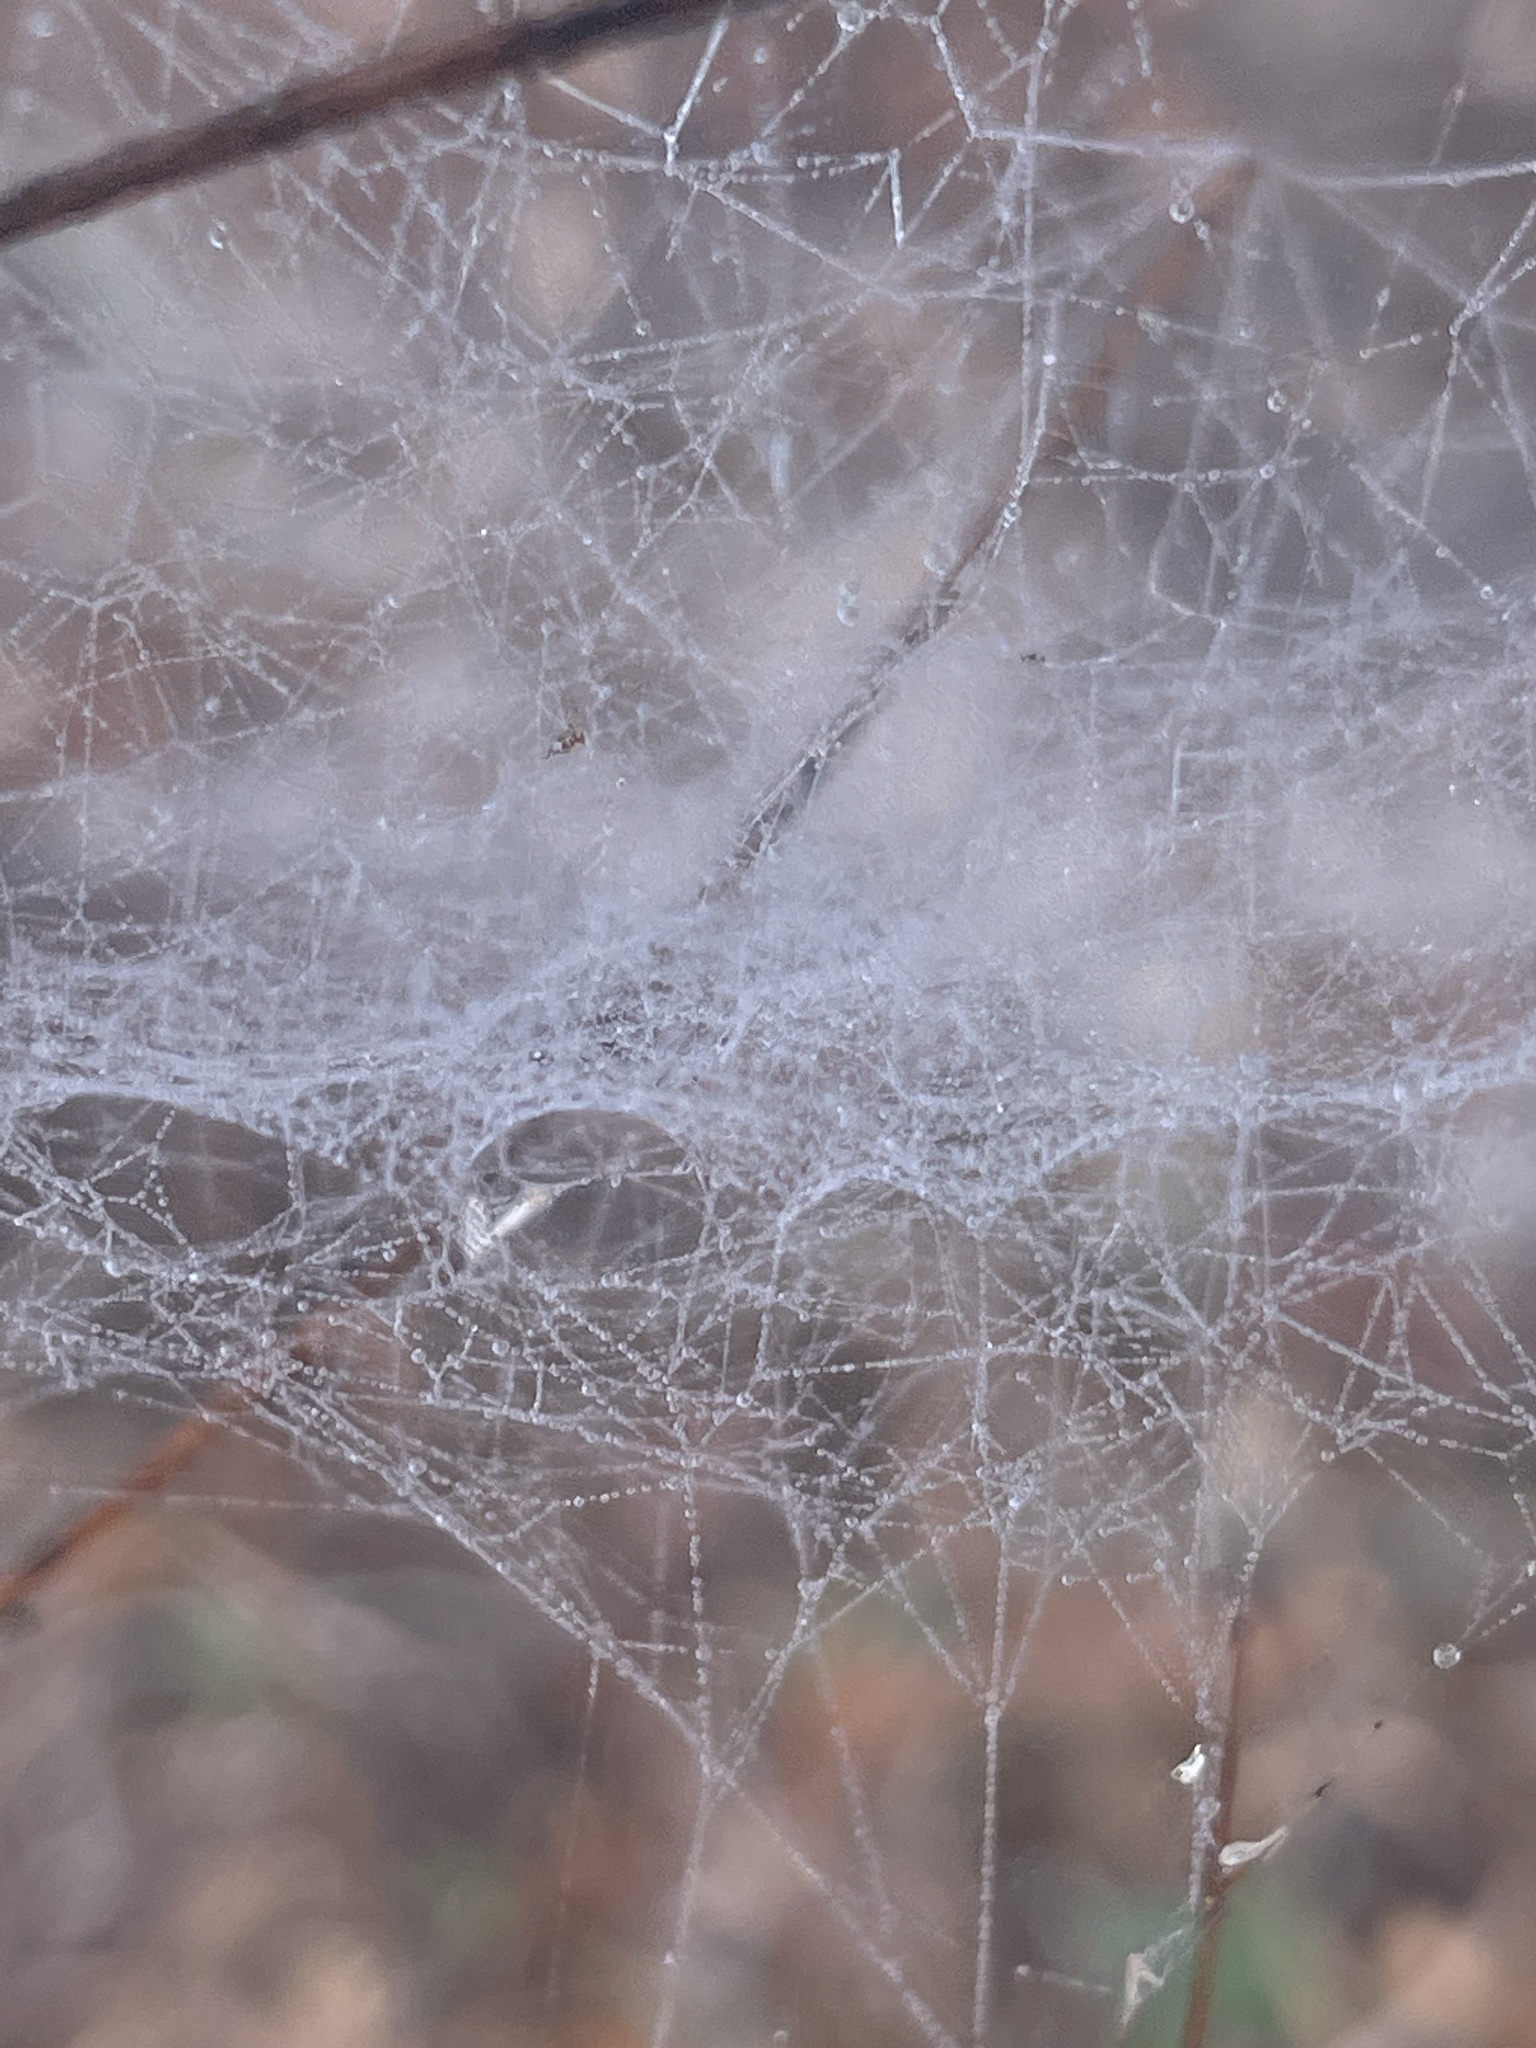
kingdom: Animalia
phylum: Arthropoda
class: Arachnida
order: Araneae
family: Linyphiidae
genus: Frontinella
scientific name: Frontinella pyramitela
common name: Bowl-and-doily spider
